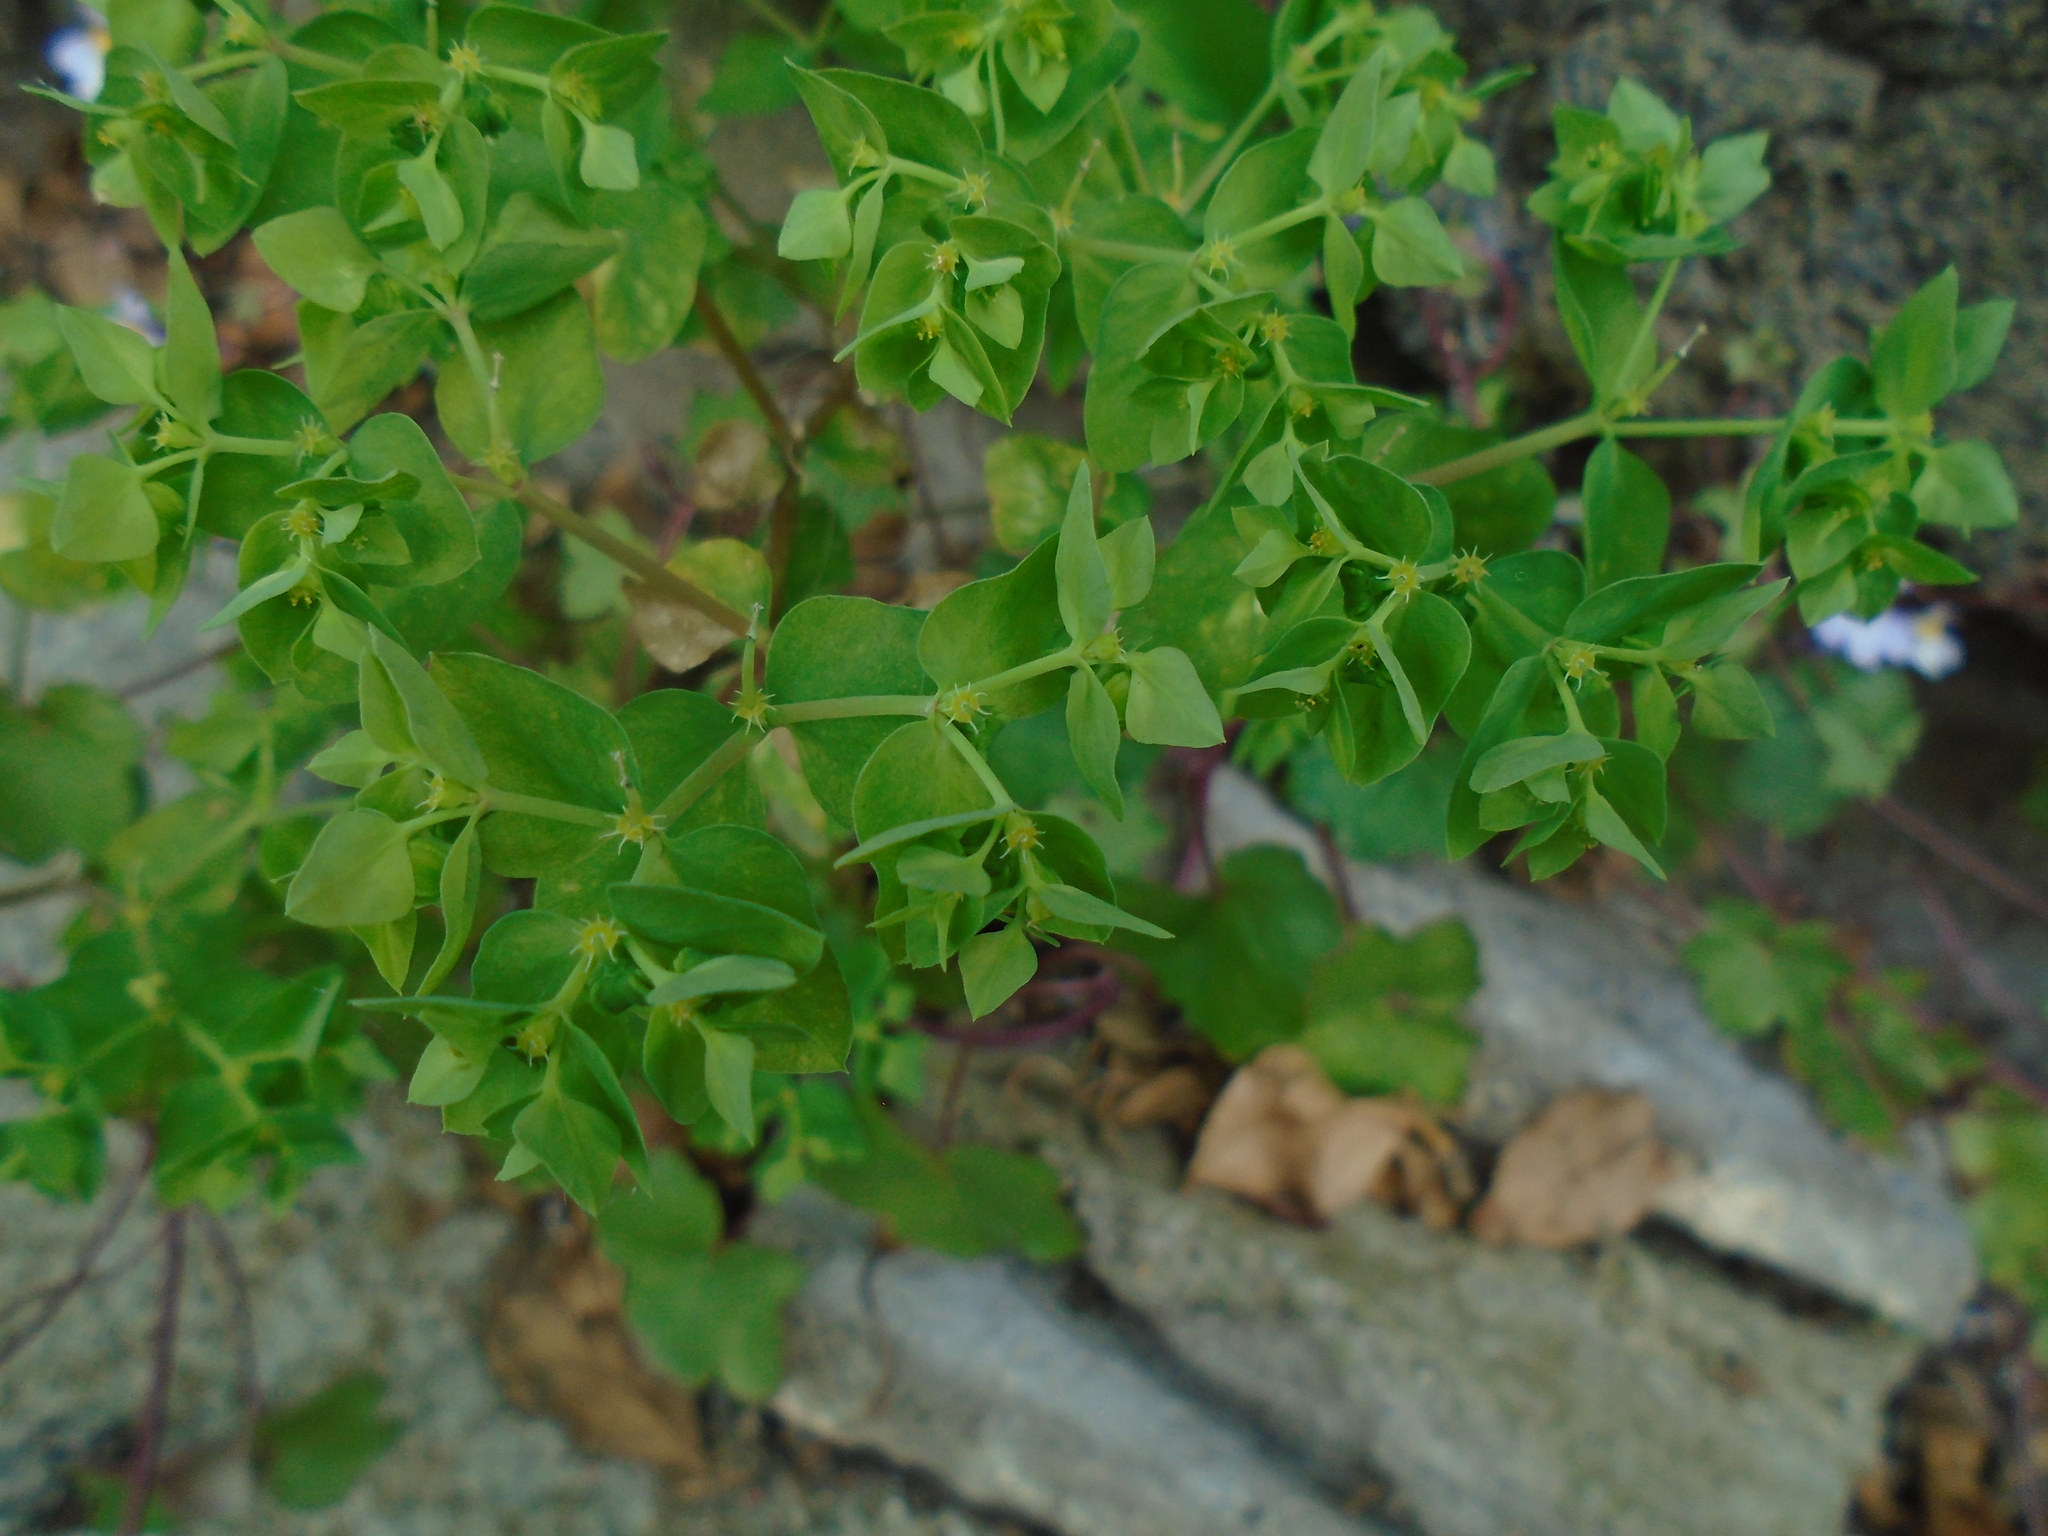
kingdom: Plantae
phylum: Tracheophyta
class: Magnoliopsida
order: Malpighiales
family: Euphorbiaceae
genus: Euphorbia
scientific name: Euphorbia peplus
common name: Petty spurge
